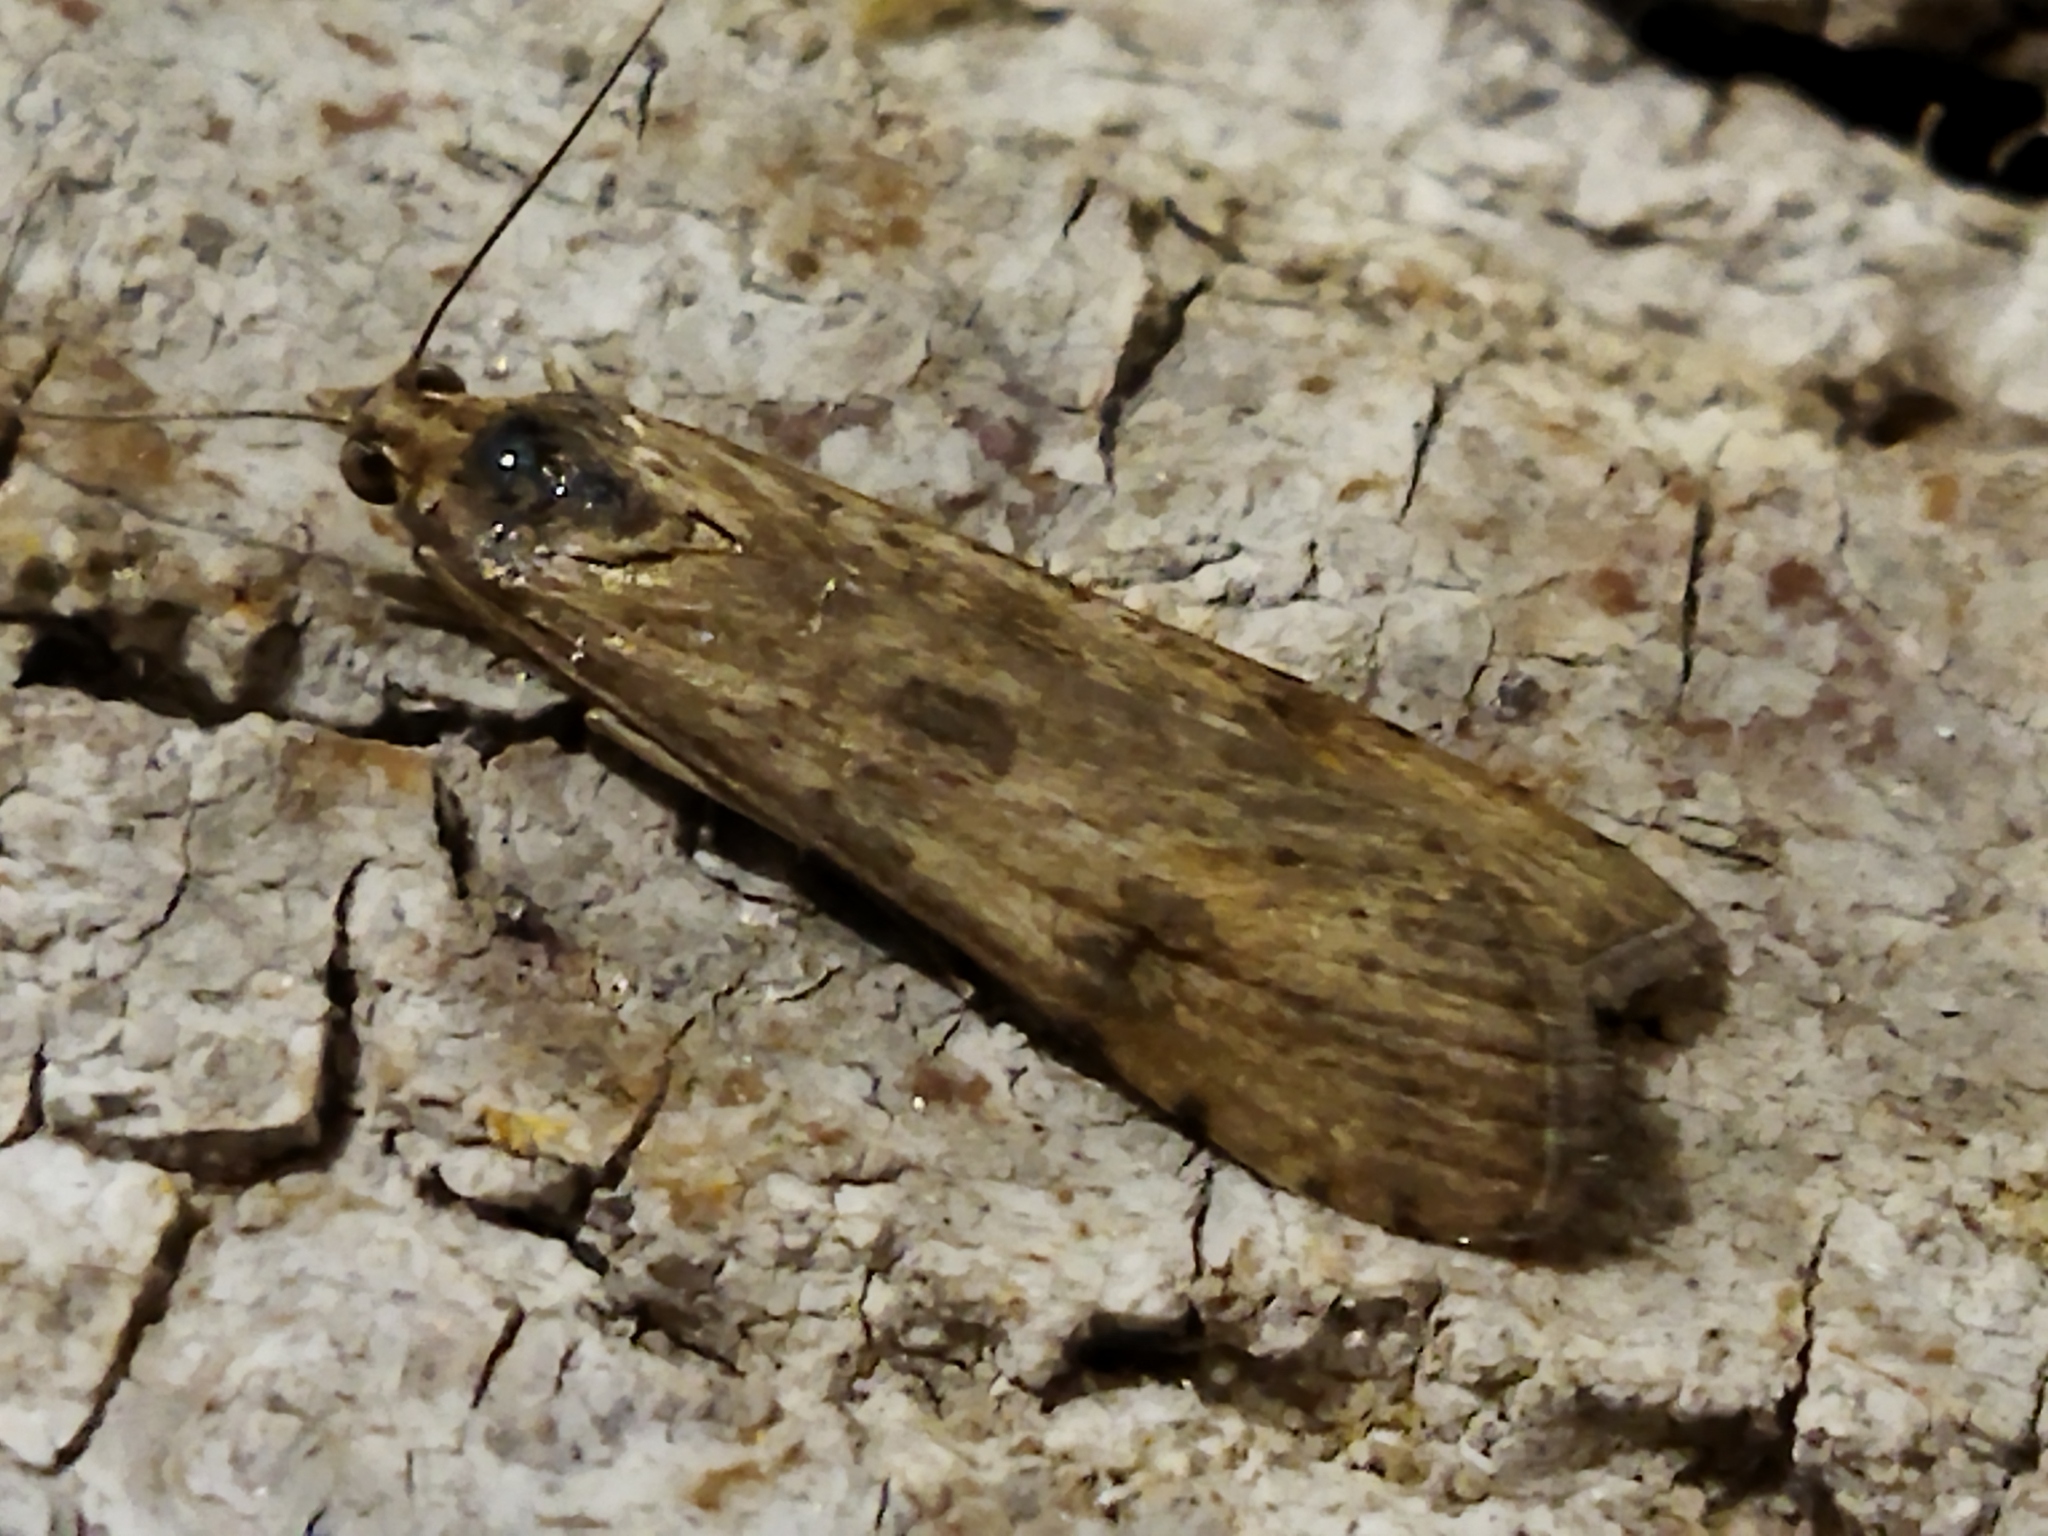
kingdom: Animalia
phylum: Arthropoda
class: Insecta
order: Lepidoptera
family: Crambidae
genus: Nomophila
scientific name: Nomophila noctuella
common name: Rush veneer
